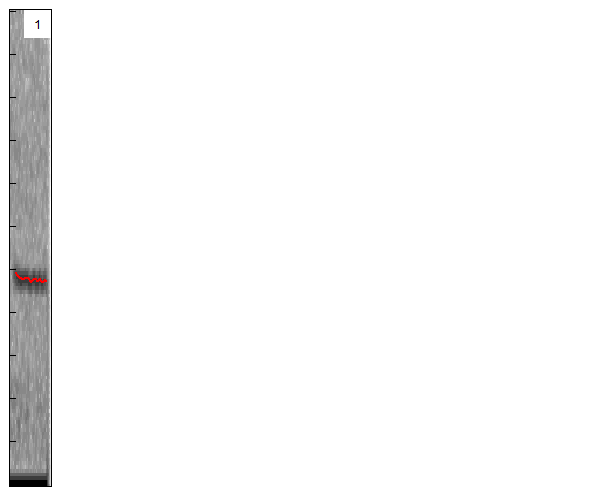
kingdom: Animalia
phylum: Chordata
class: Mammalia
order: Chiroptera
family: Vespertilionidae
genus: Pipistrellus
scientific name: Pipistrellus pygmaeus
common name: Soprano pipistrelle
